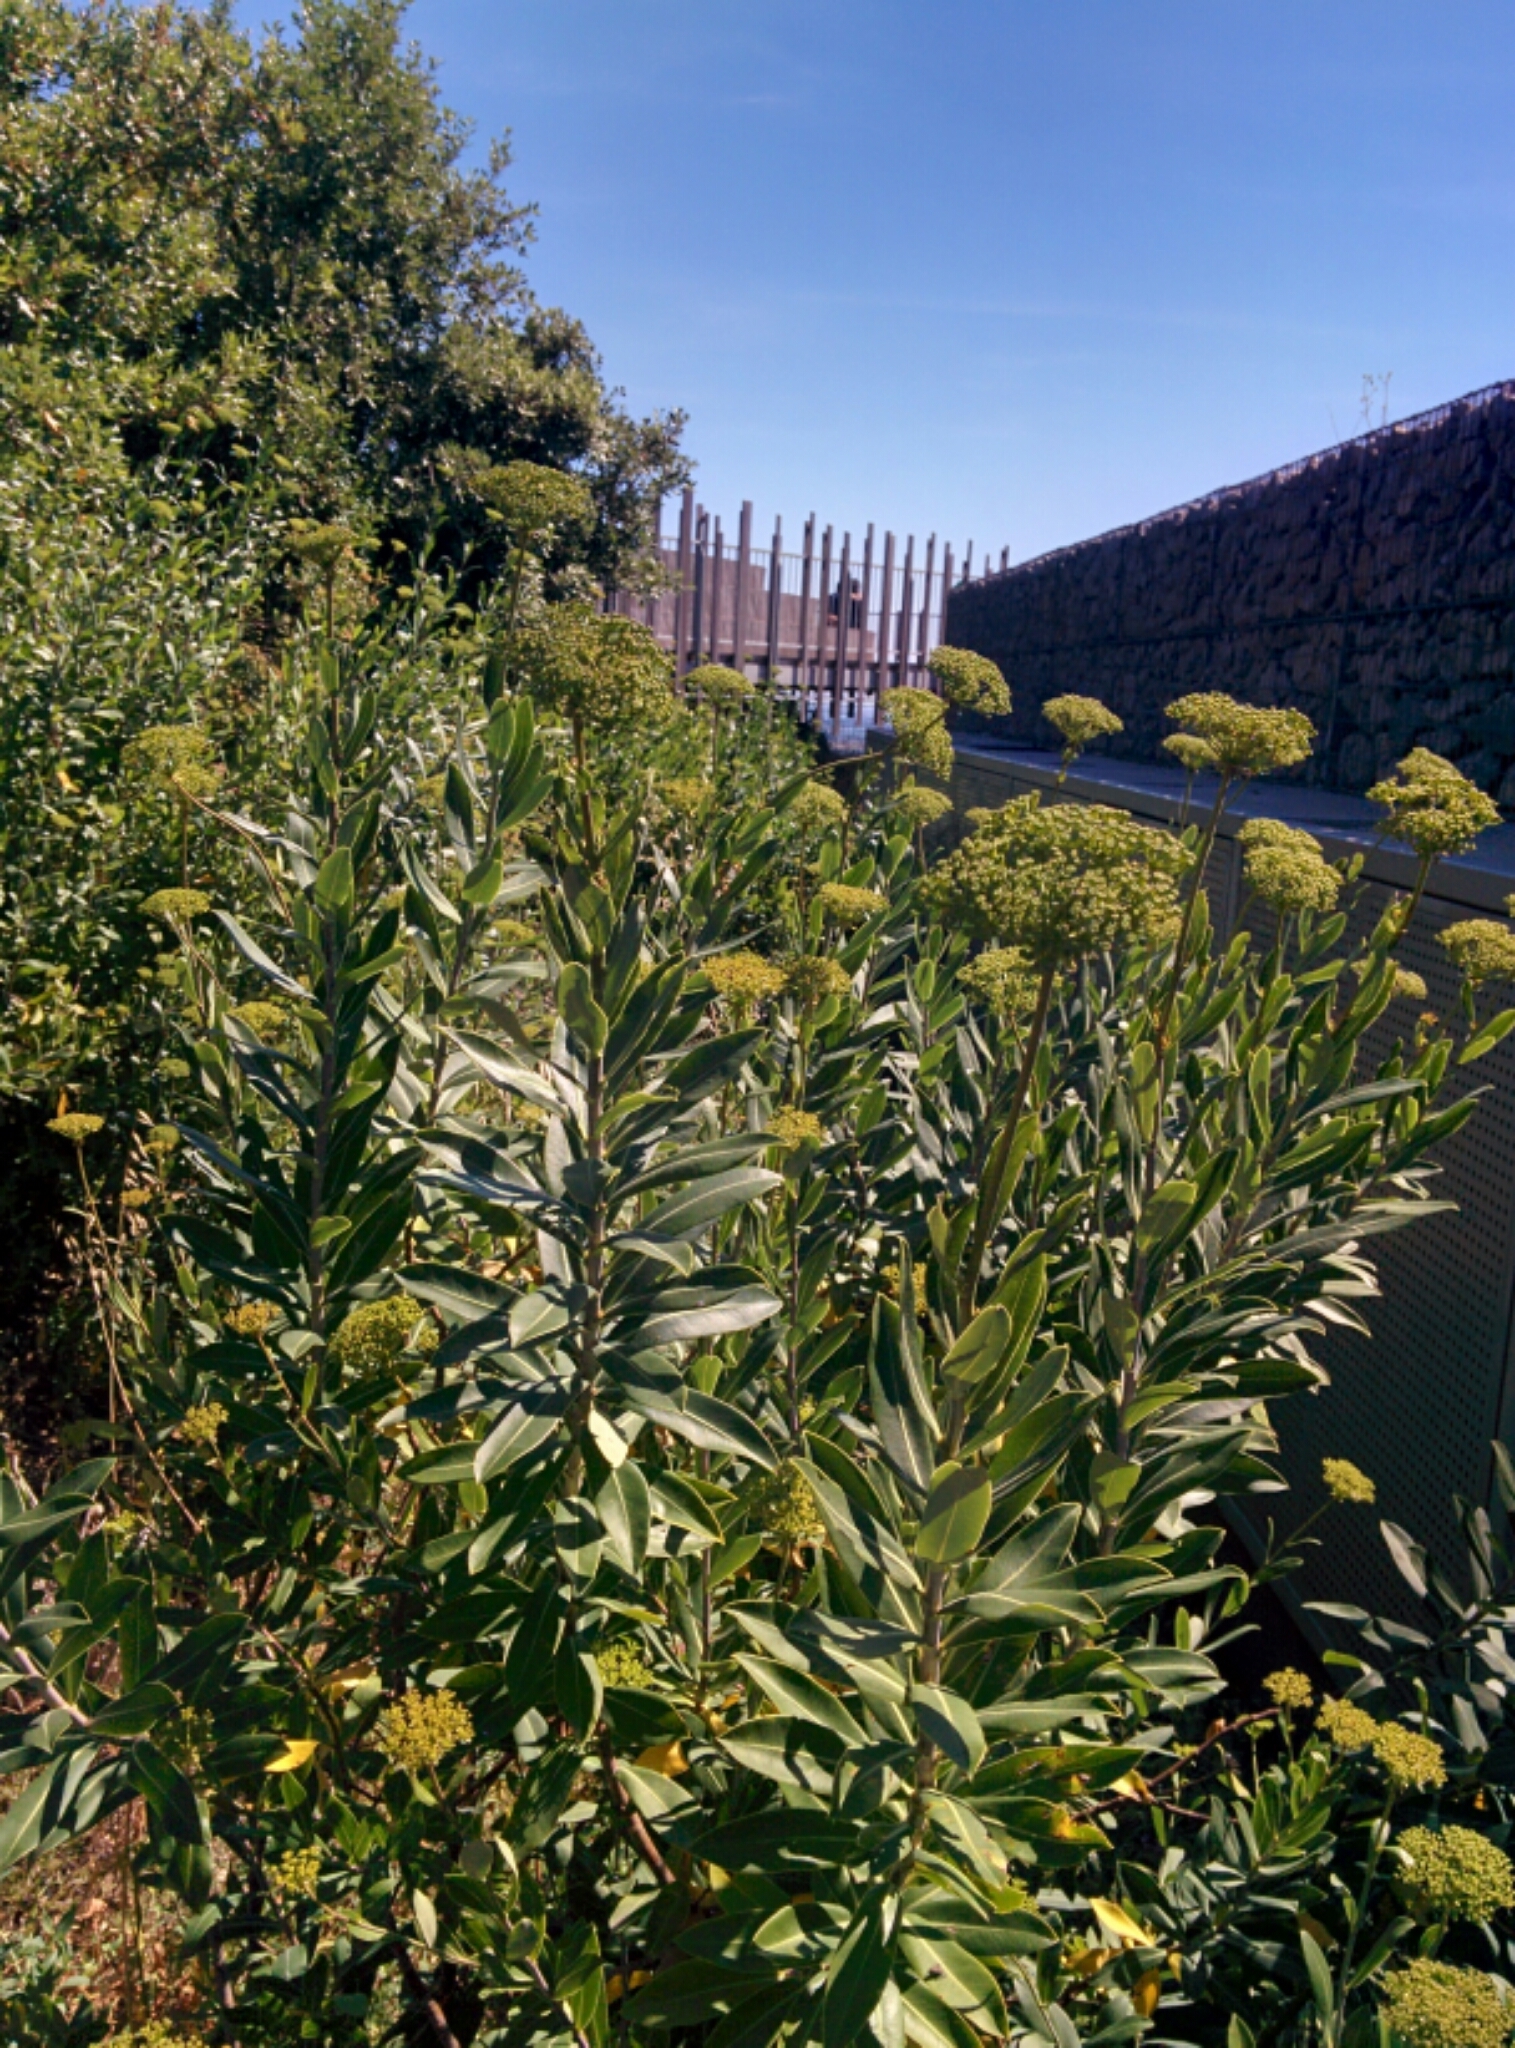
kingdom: Plantae
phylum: Tracheophyta
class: Magnoliopsida
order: Apiales
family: Apiaceae
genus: Bupleurum
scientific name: Bupleurum fruticosum
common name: Shrubby hare's-ear
